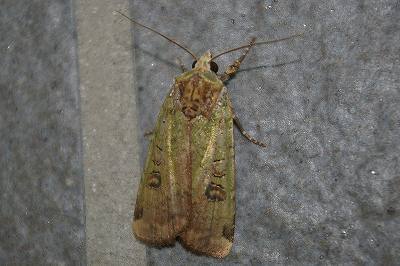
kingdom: Animalia
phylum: Arthropoda
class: Insecta
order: Lepidoptera
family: Noctuidae
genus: Xestia
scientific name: Xestia semiherbida
